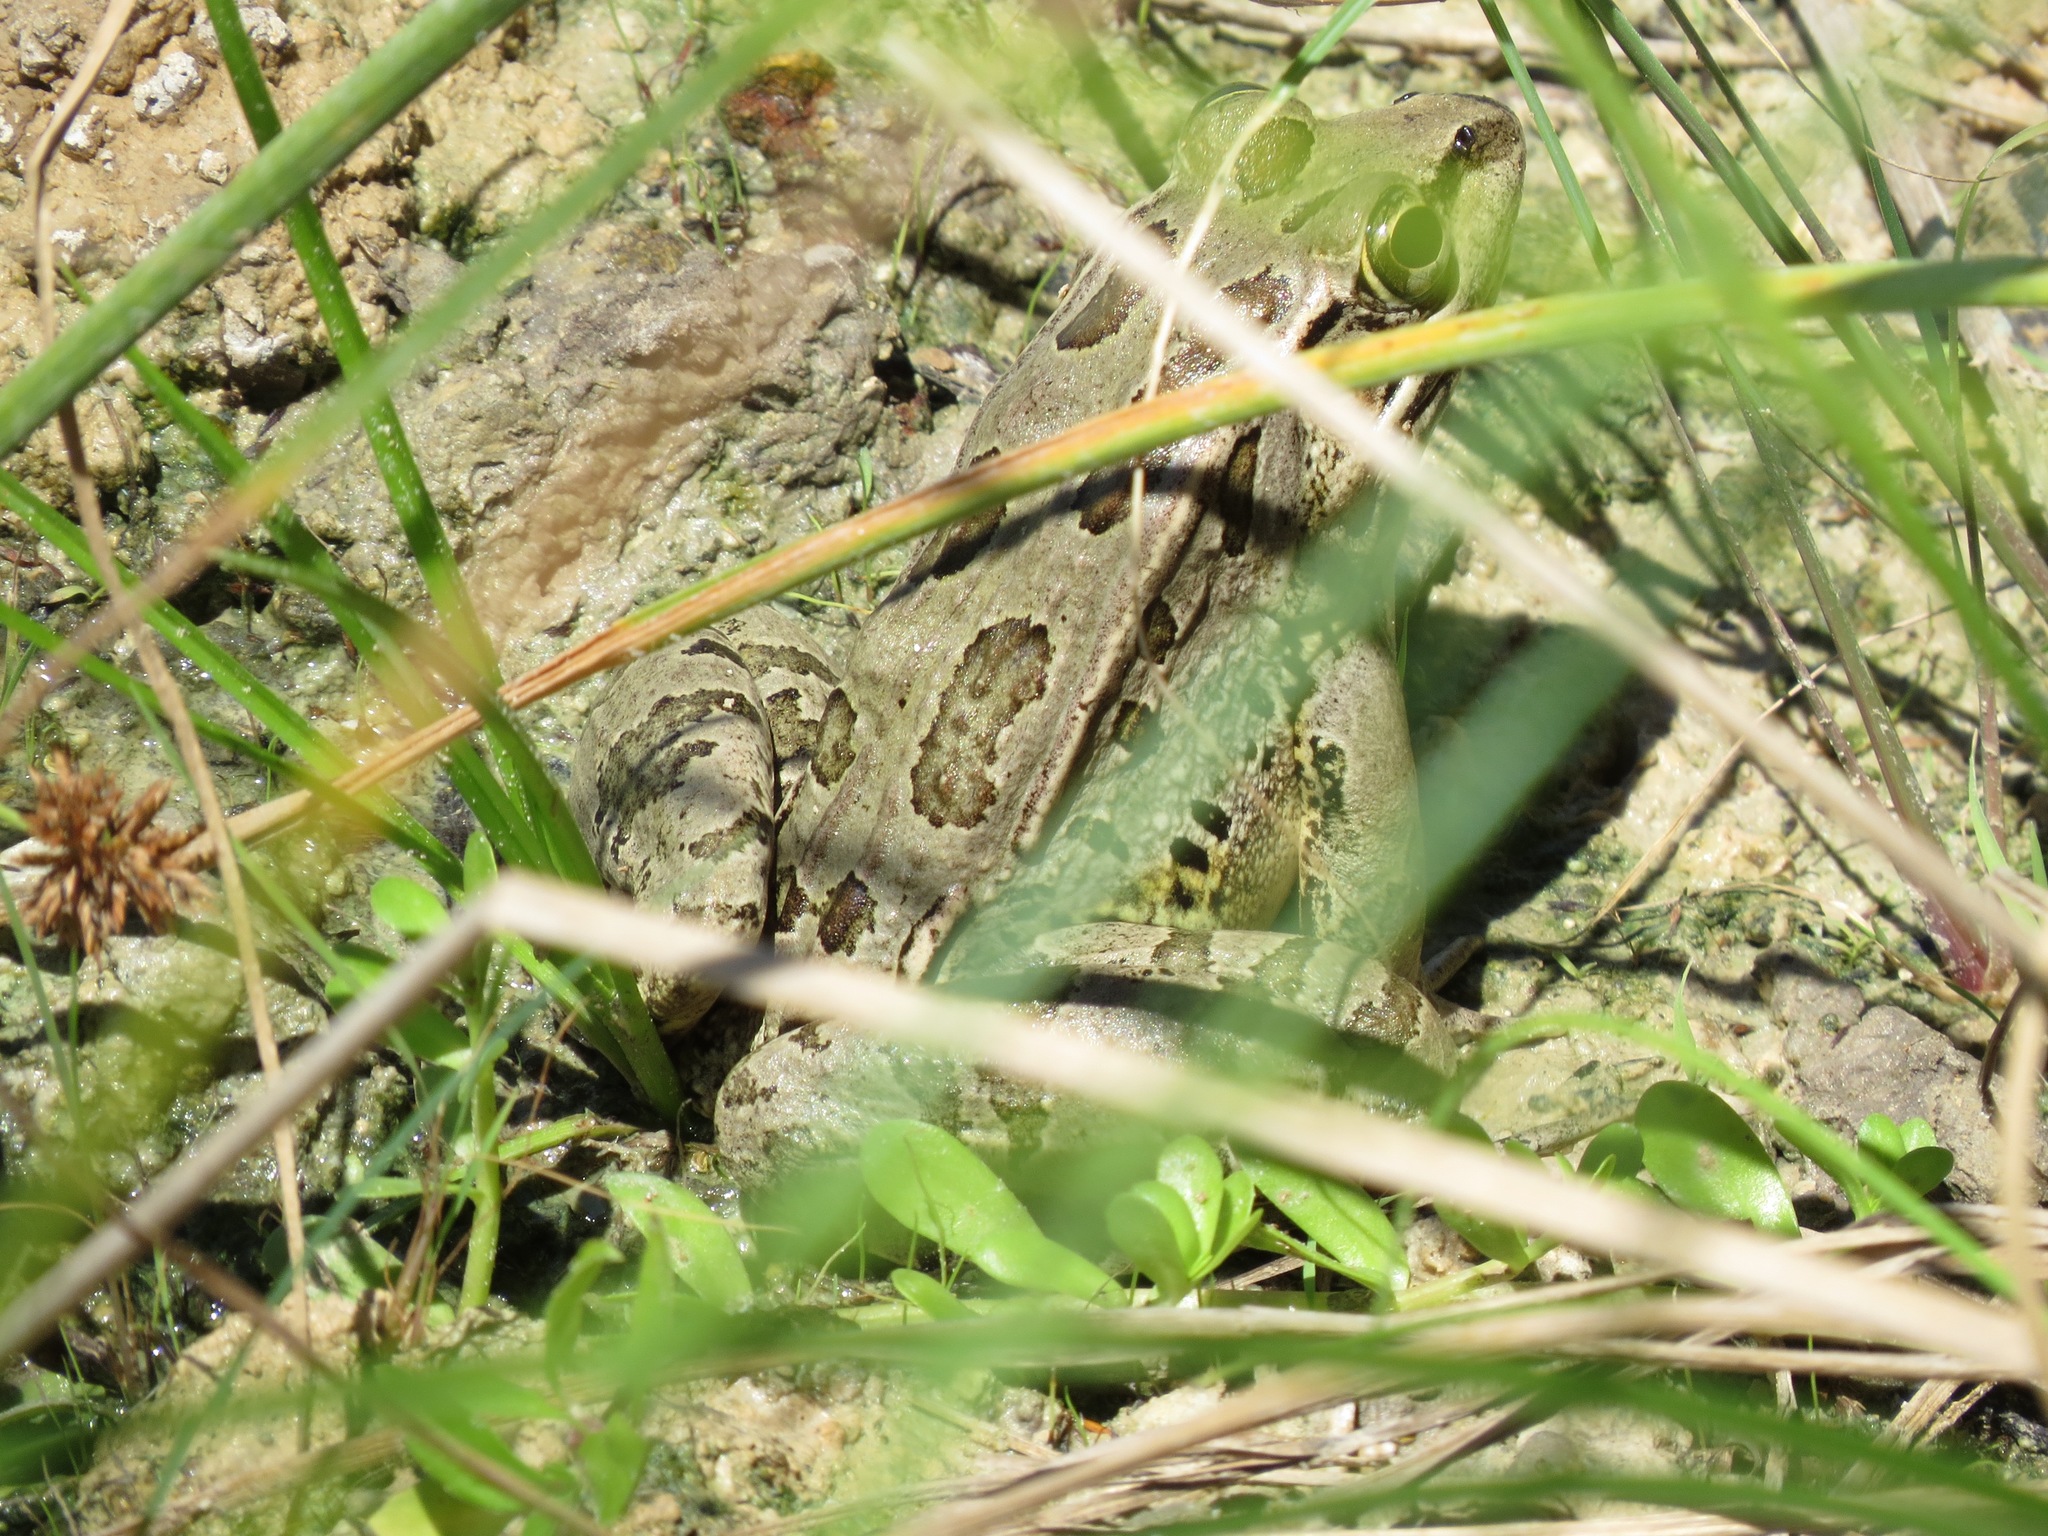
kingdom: Animalia
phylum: Chordata
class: Amphibia
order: Anura
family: Ranidae
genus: Lithobates
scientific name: Lithobates berlandieri
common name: Rio grande leopard frog
